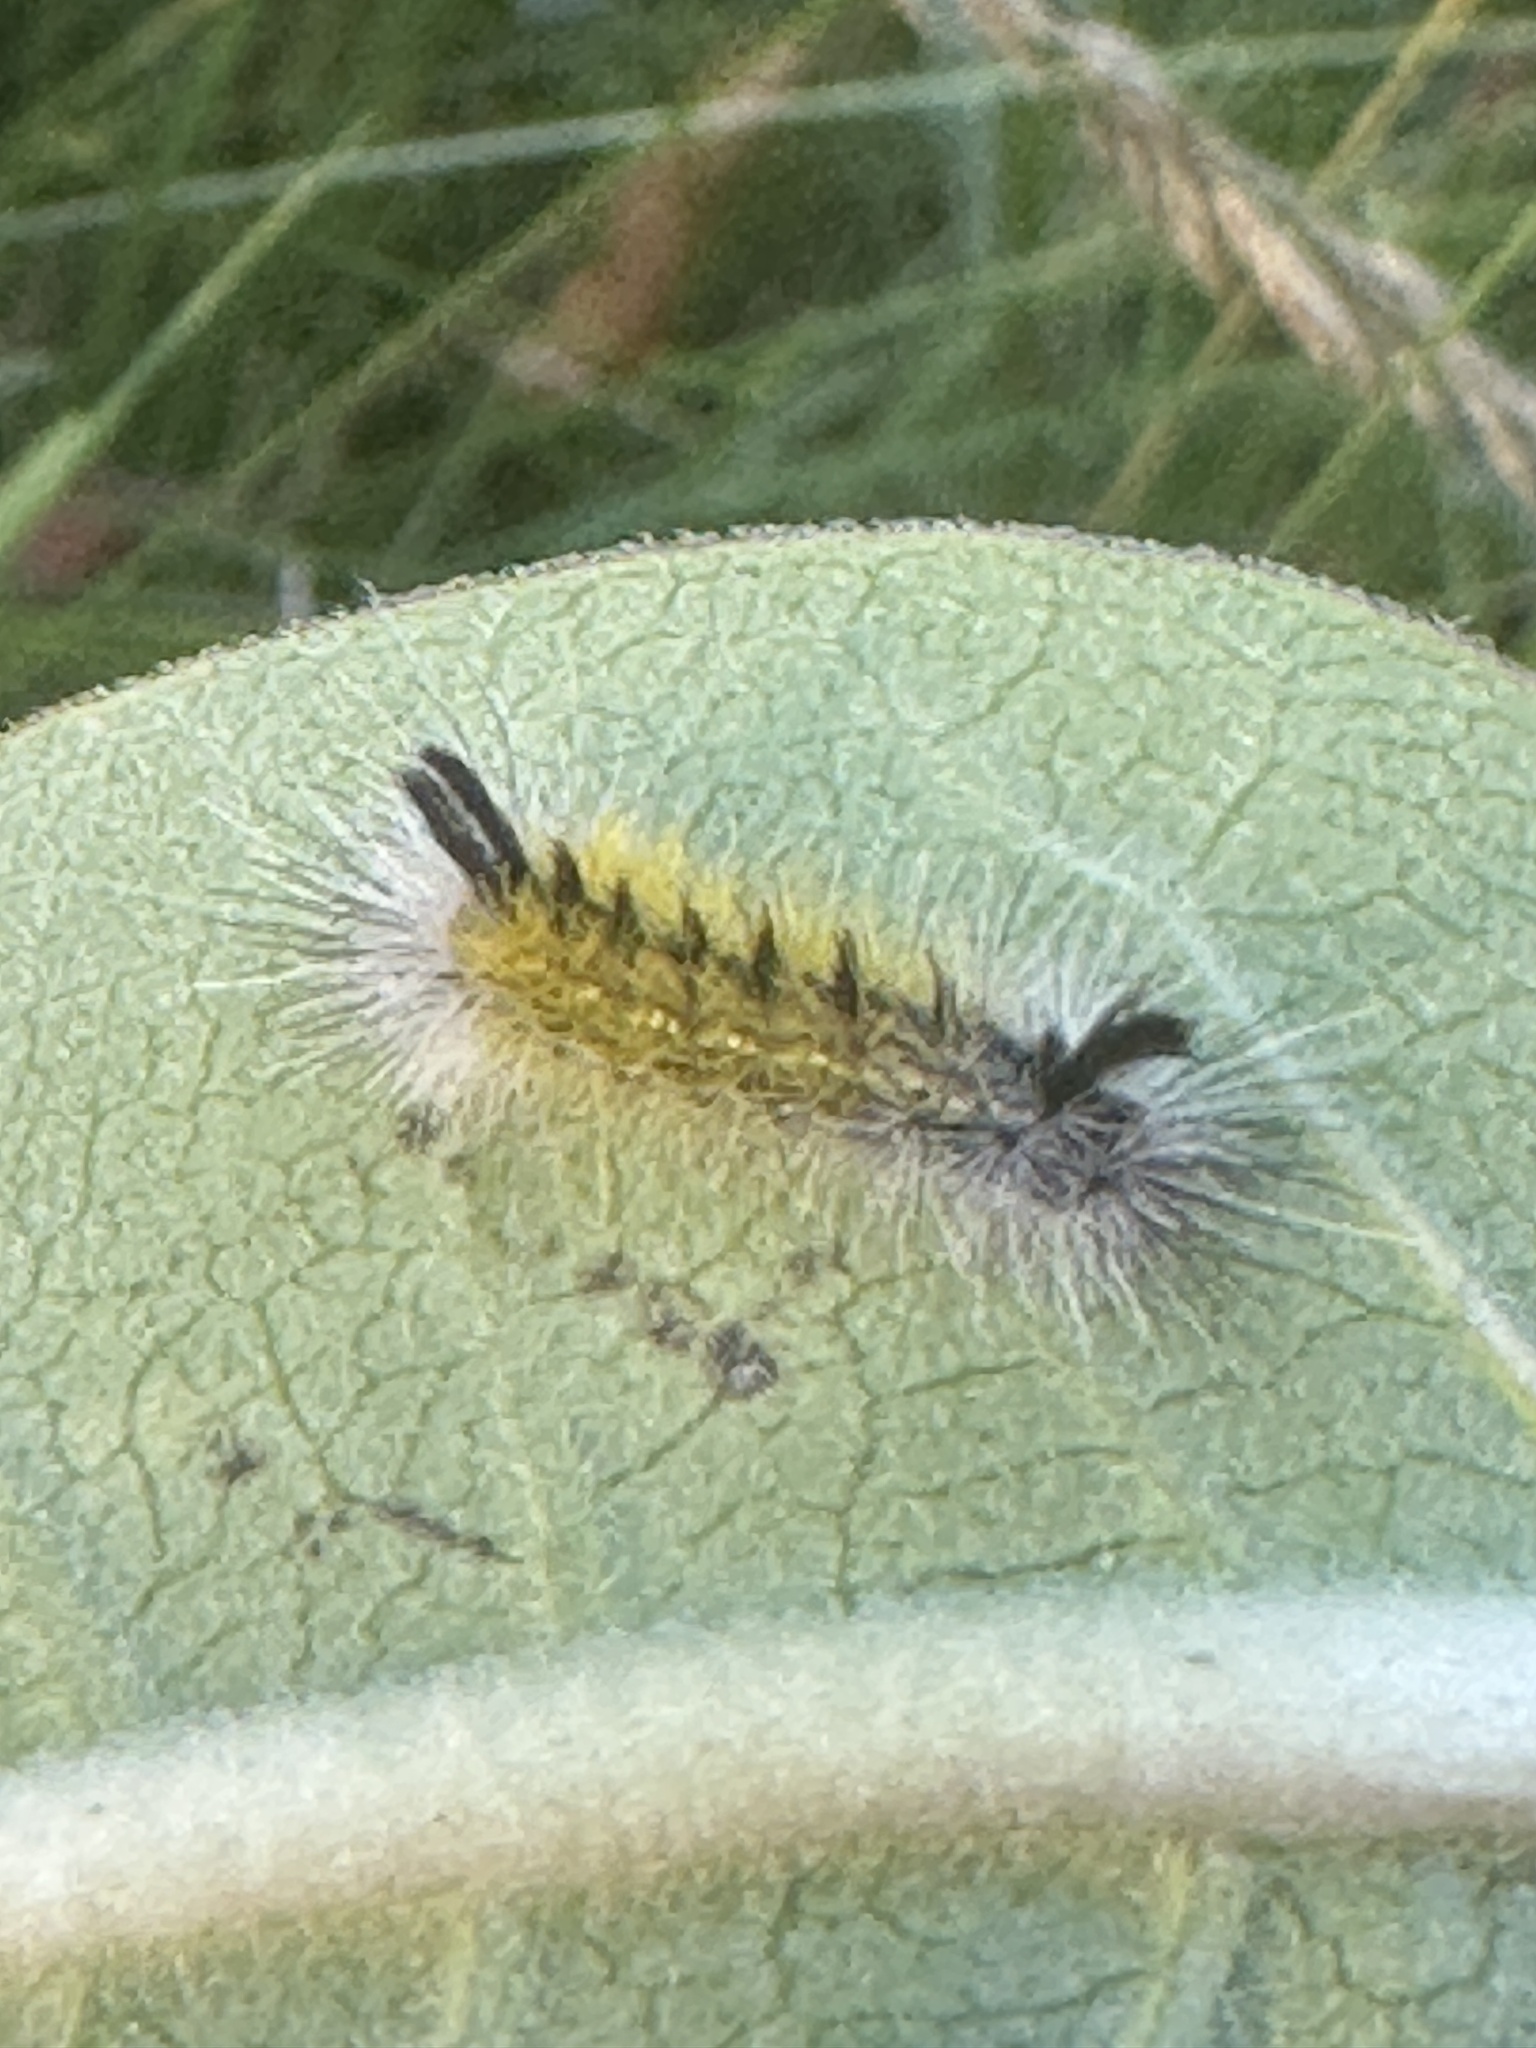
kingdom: Animalia
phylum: Arthropoda
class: Insecta
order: Lepidoptera
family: Erebidae
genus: Ctenucha
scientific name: Ctenucha virginica
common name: Virginia ctenucha moth
